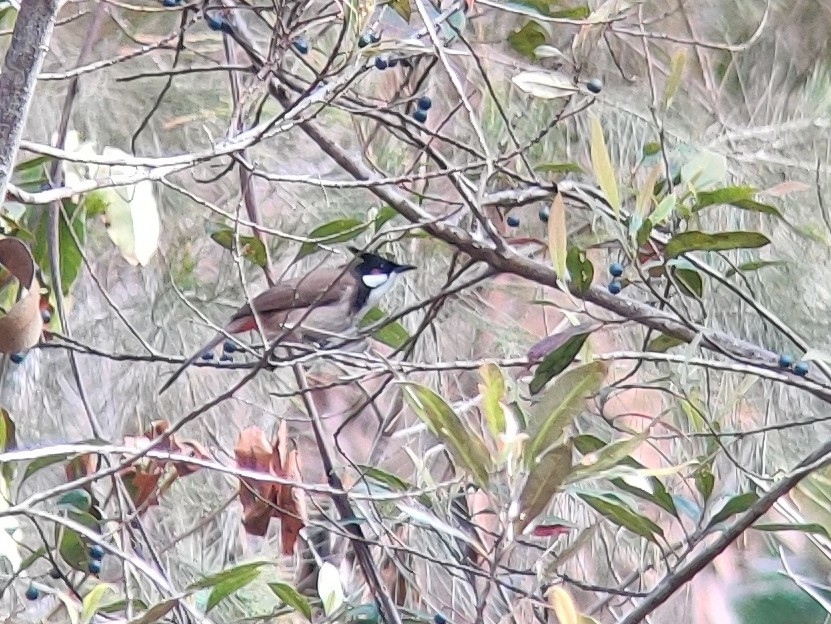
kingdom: Animalia
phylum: Chordata
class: Aves
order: Passeriformes
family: Pycnonotidae
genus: Pycnonotus
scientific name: Pycnonotus jocosus
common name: Red-whiskered bulbul
